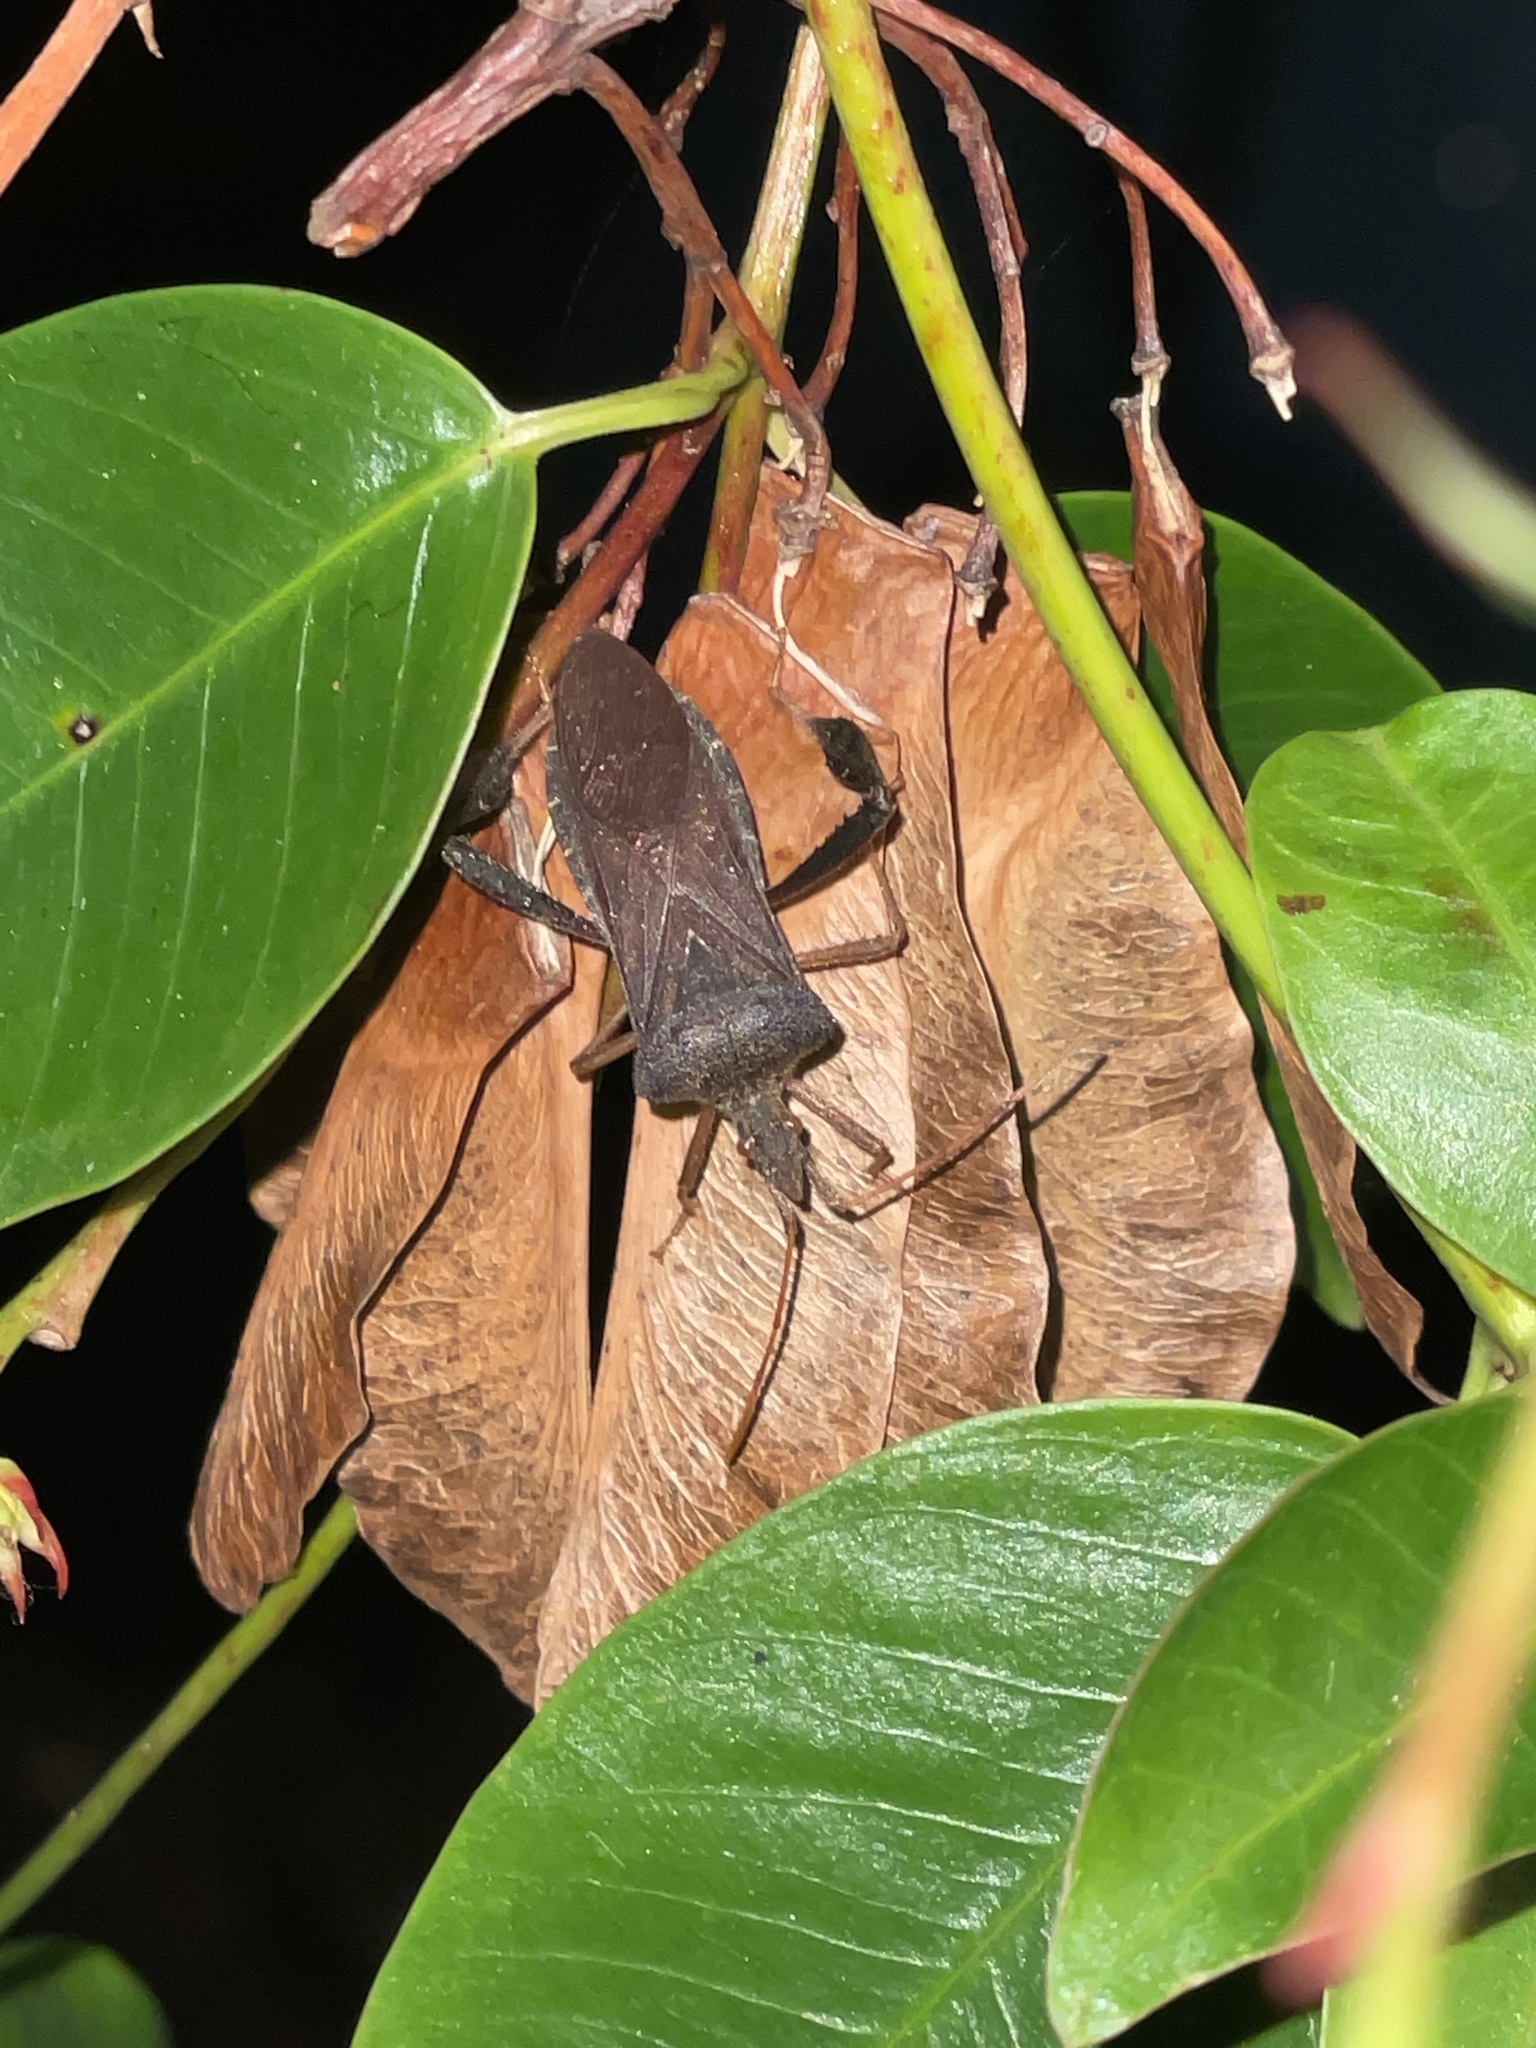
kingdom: Animalia
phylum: Arthropoda
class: Insecta
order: Hemiptera
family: Coreidae
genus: Leptoglossus
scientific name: Leptoglossus fulvicornis
